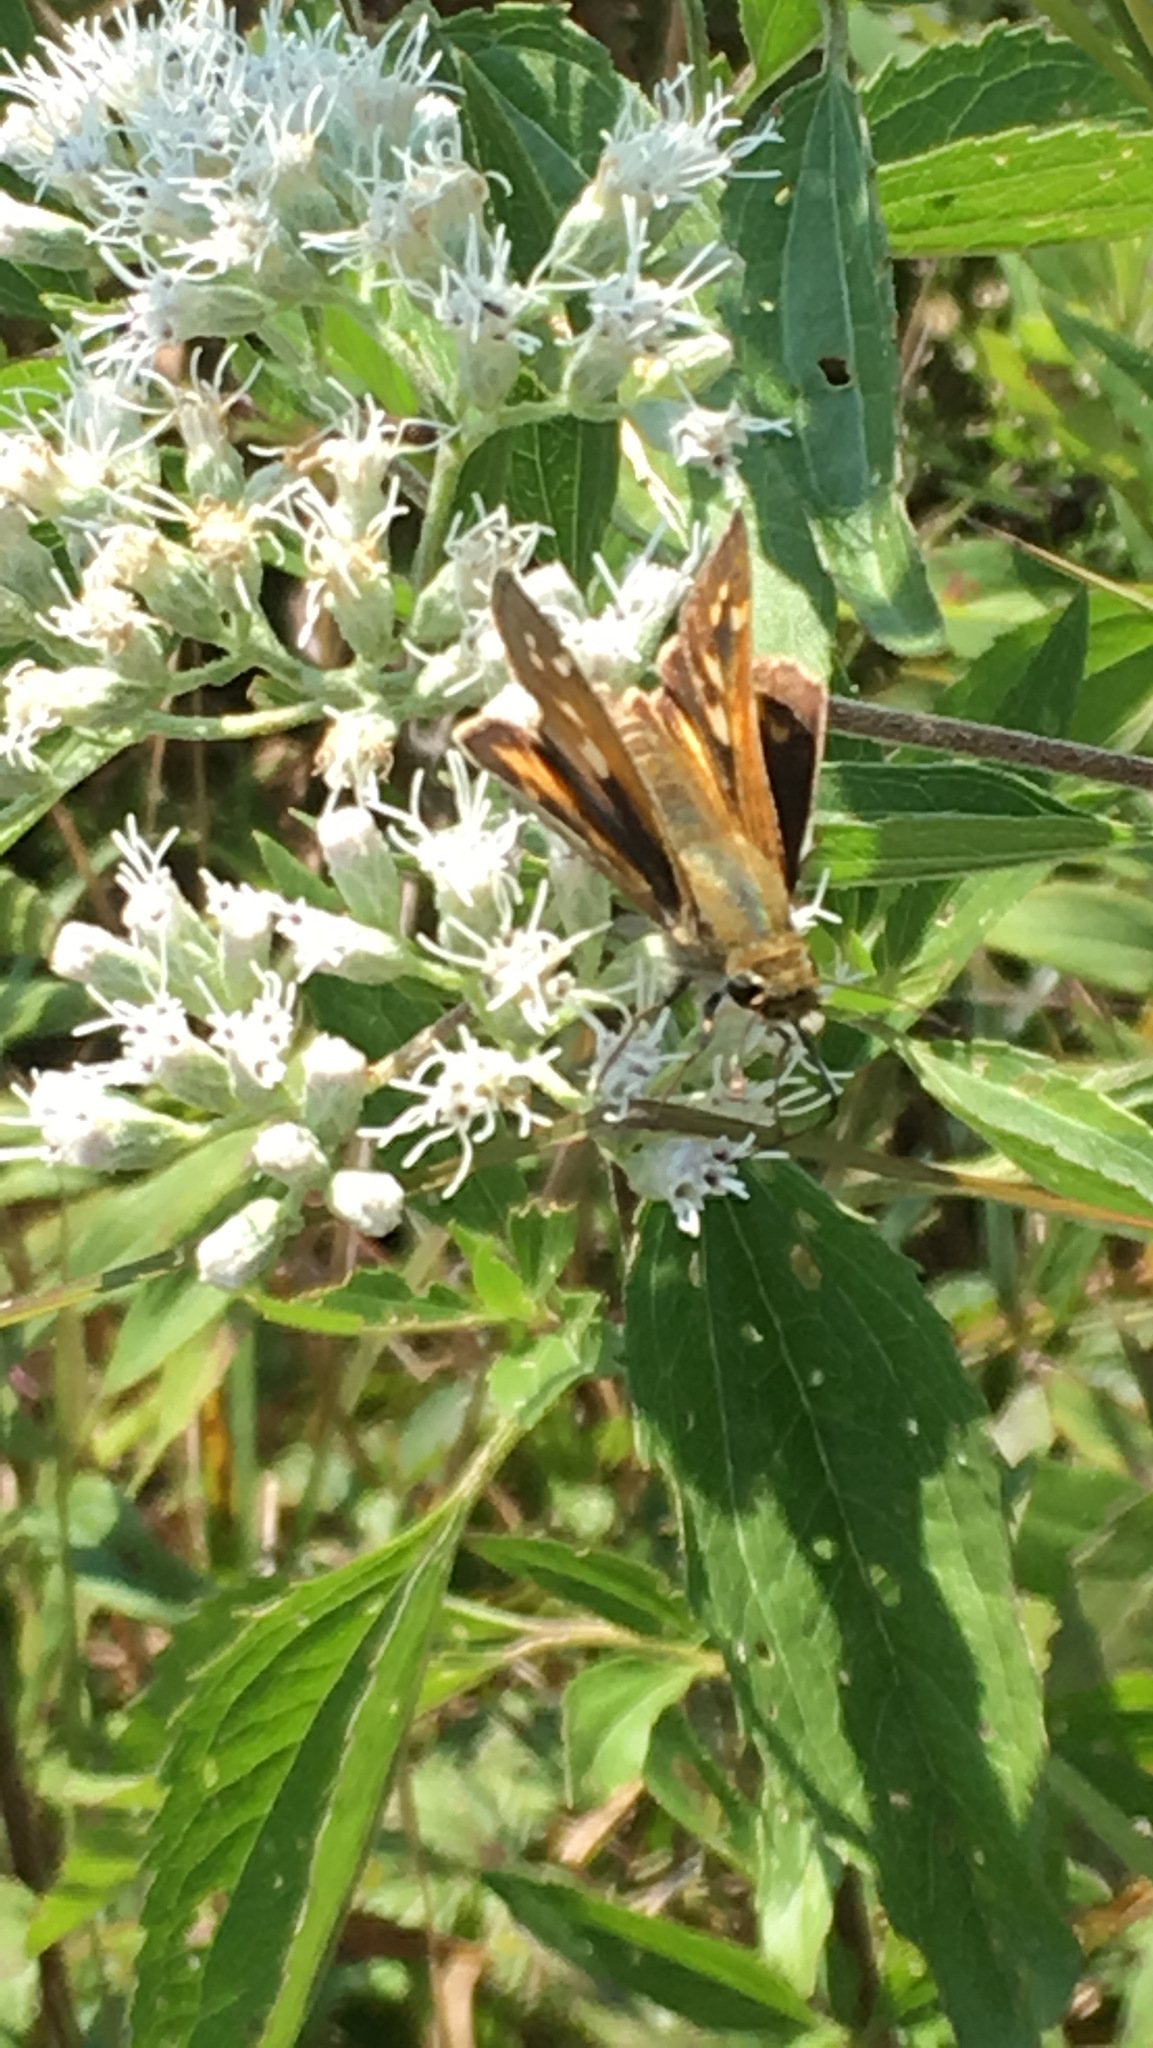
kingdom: Animalia
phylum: Arthropoda
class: Insecta
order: Lepidoptera
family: Hesperiidae
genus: Atalopedes
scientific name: Atalopedes
